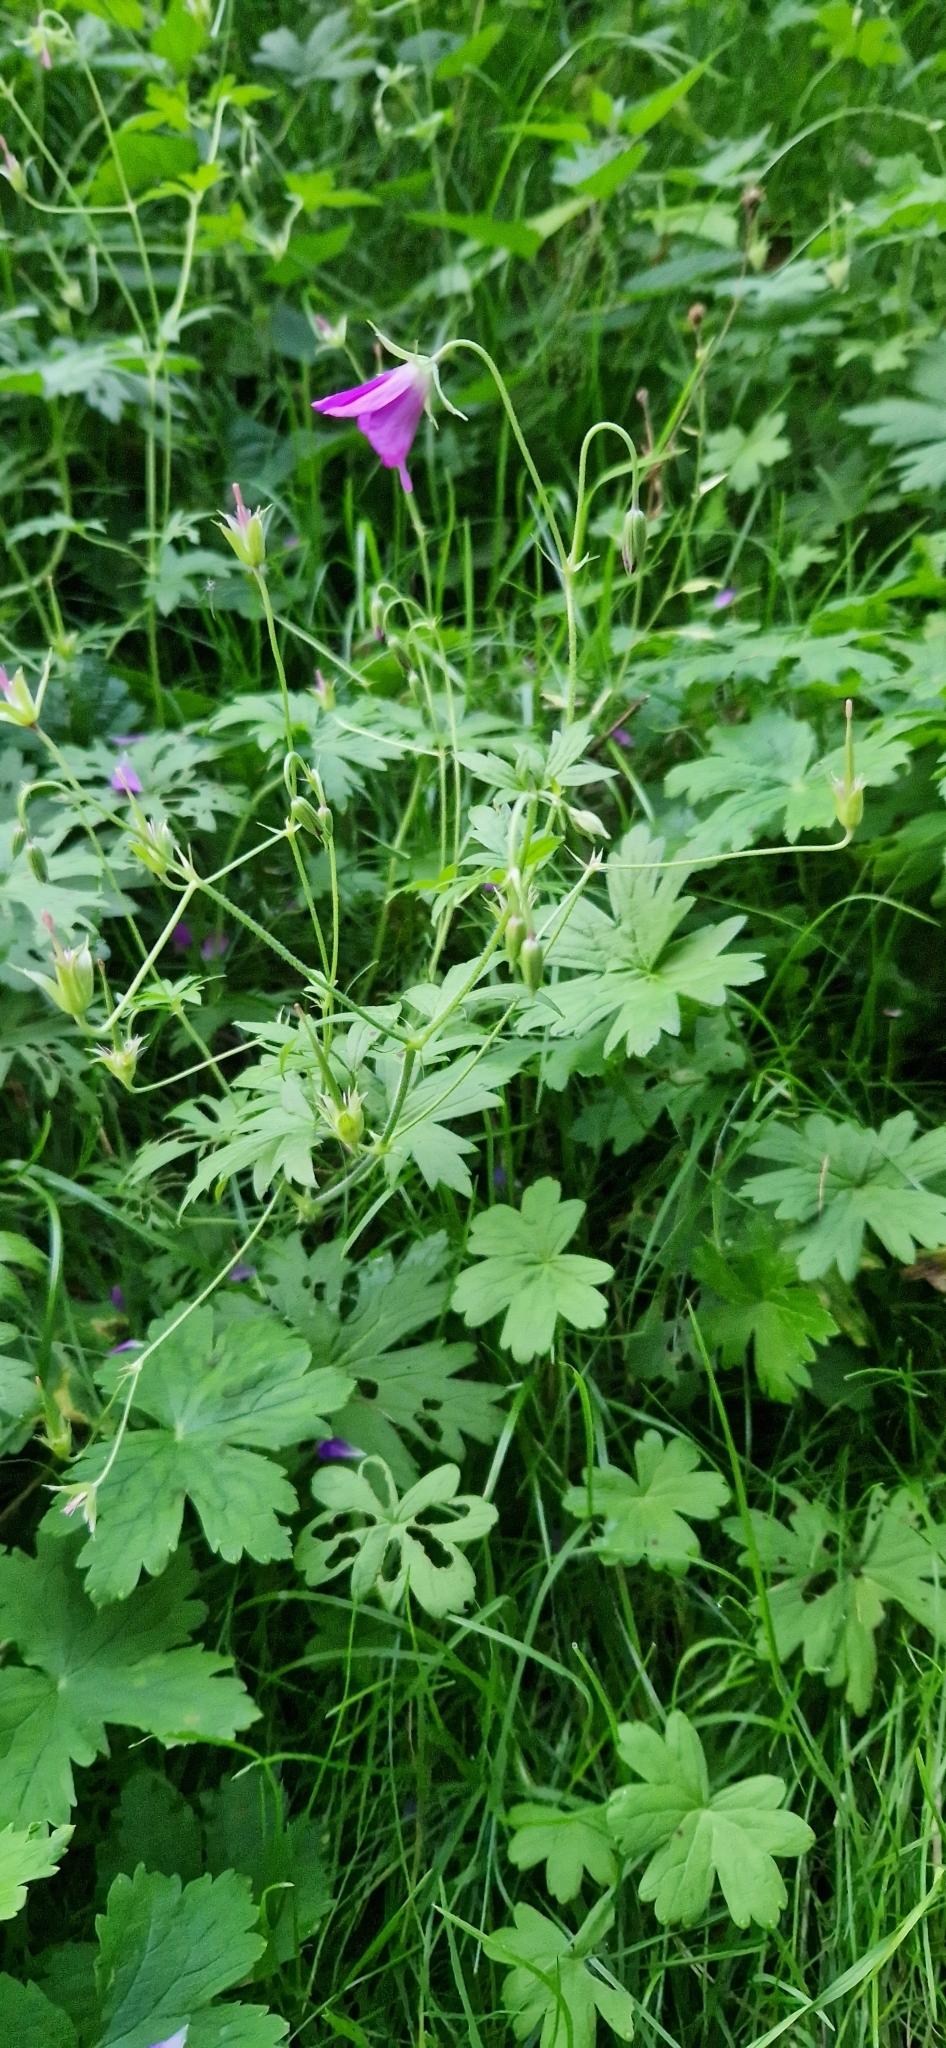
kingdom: Plantae
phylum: Tracheophyta
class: Magnoliopsida
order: Geraniales
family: Geraniaceae
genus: Geranium
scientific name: Geranium palustre
